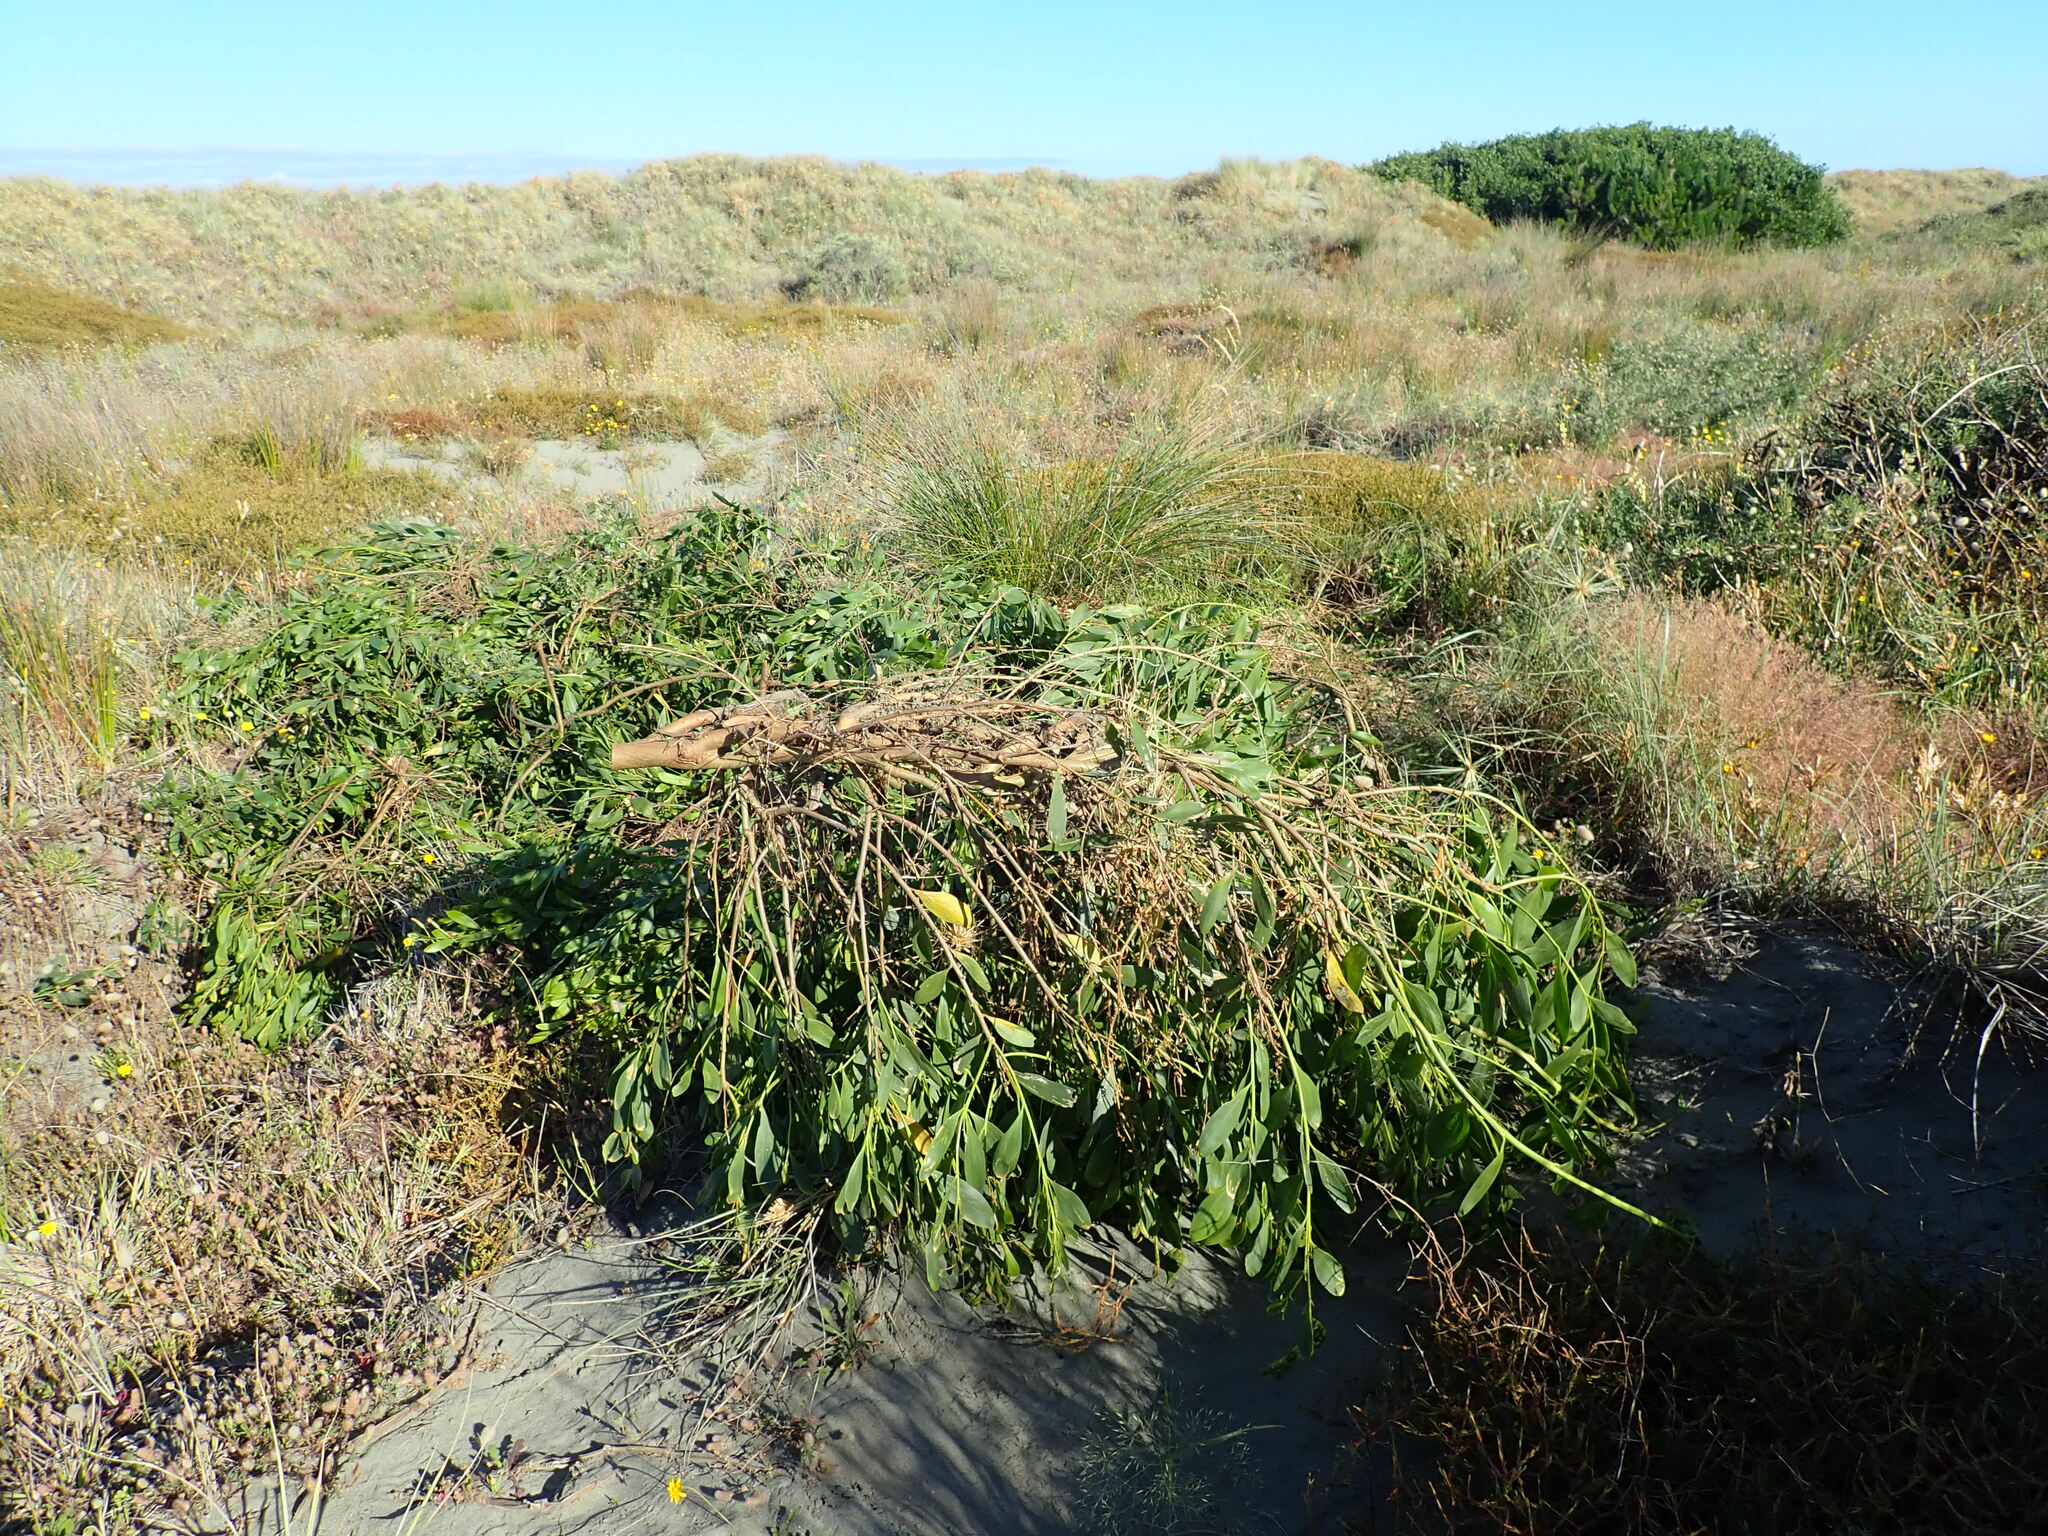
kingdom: Plantae
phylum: Tracheophyta
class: Magnoliopsida
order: Fabales
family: Fabaceae
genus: Acacia
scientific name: Acacia longifolia
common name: Sydney golden wattle
